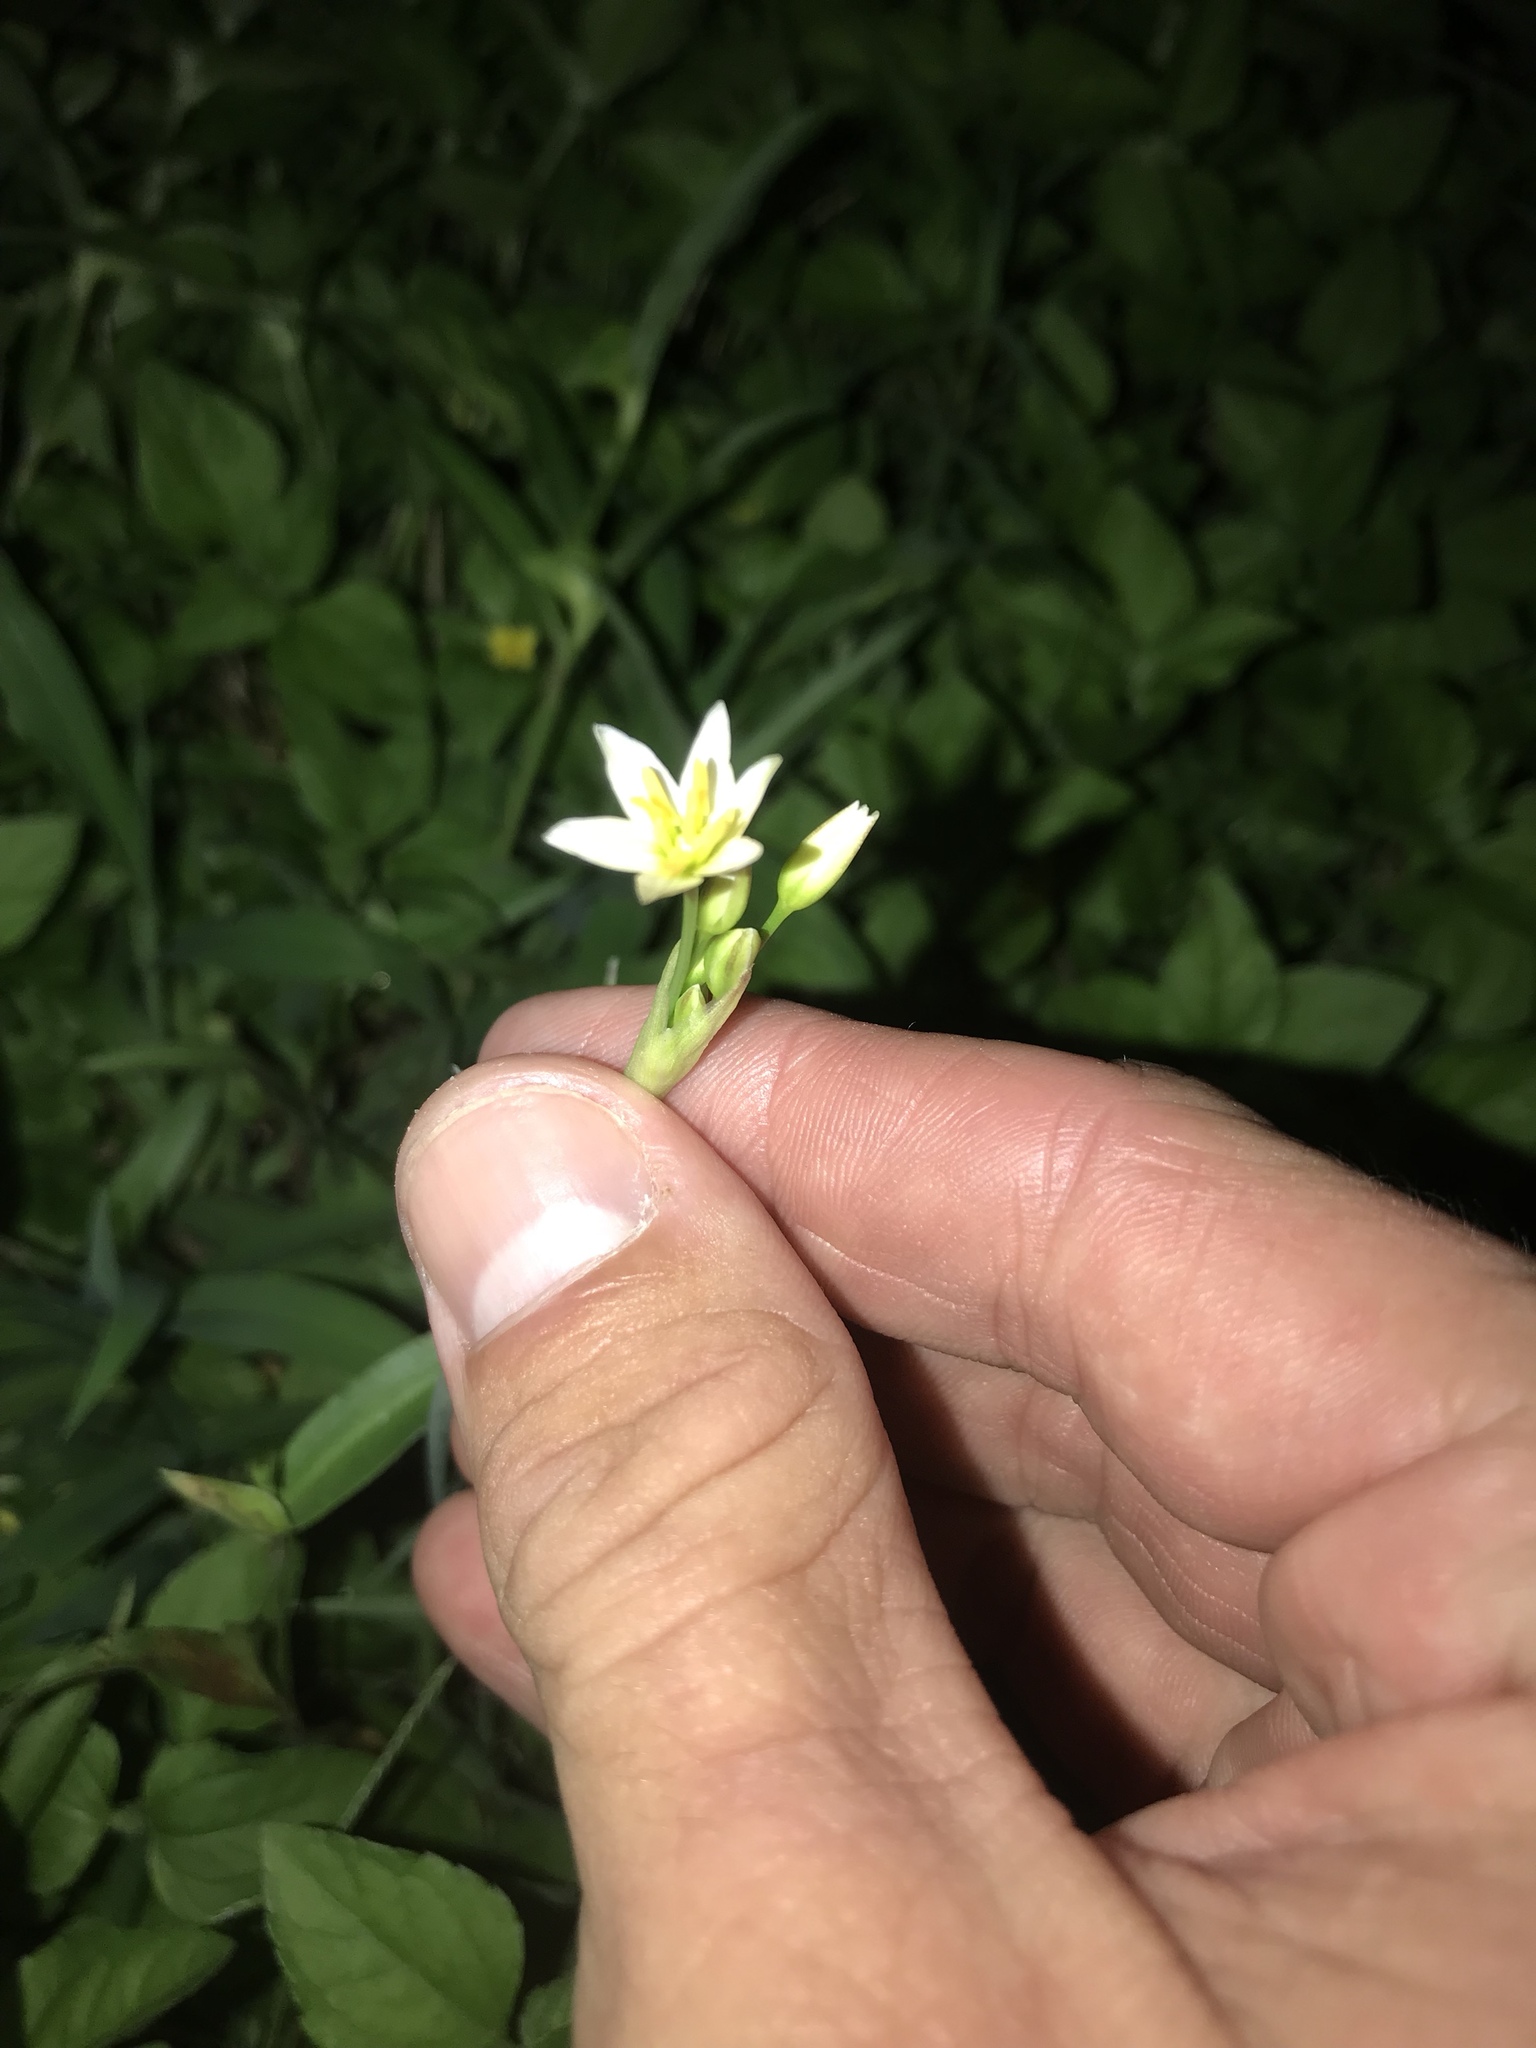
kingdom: Plantae
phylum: Tracheophyta
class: Liliopsida
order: Asparagales
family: Amaryllidaceae
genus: Nothoscordum
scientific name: Nothoscordum bivalve
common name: Crow-poison
